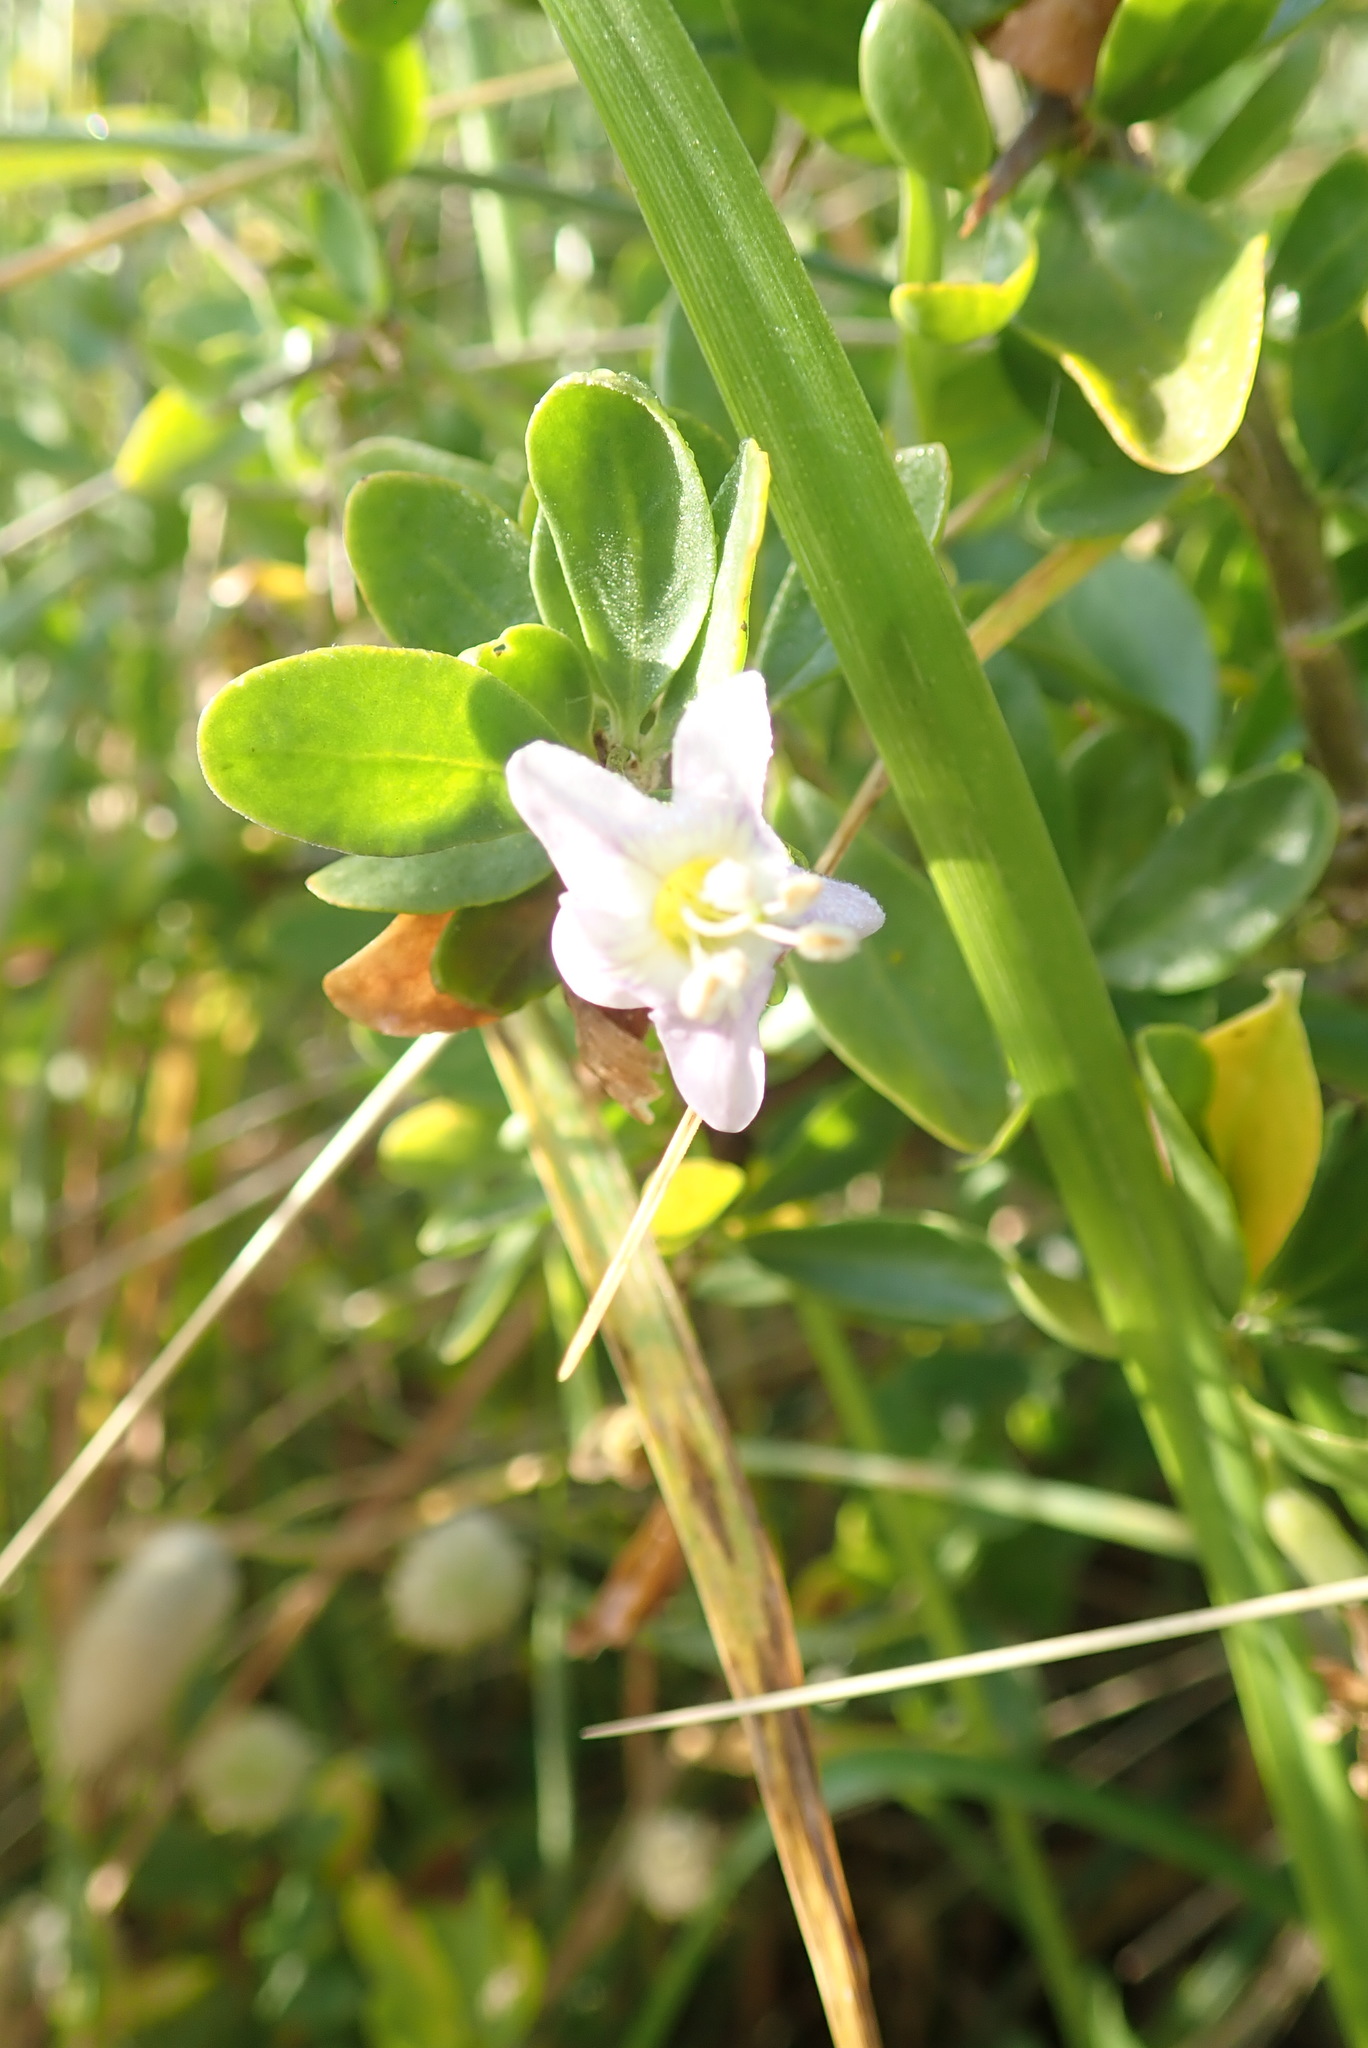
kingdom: Plantae
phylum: Tracheophyta
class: Magnoliopsida
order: Solanales
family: Solanaceae
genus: Lycium
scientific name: Lycium ferocissimum
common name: African boxthorn
